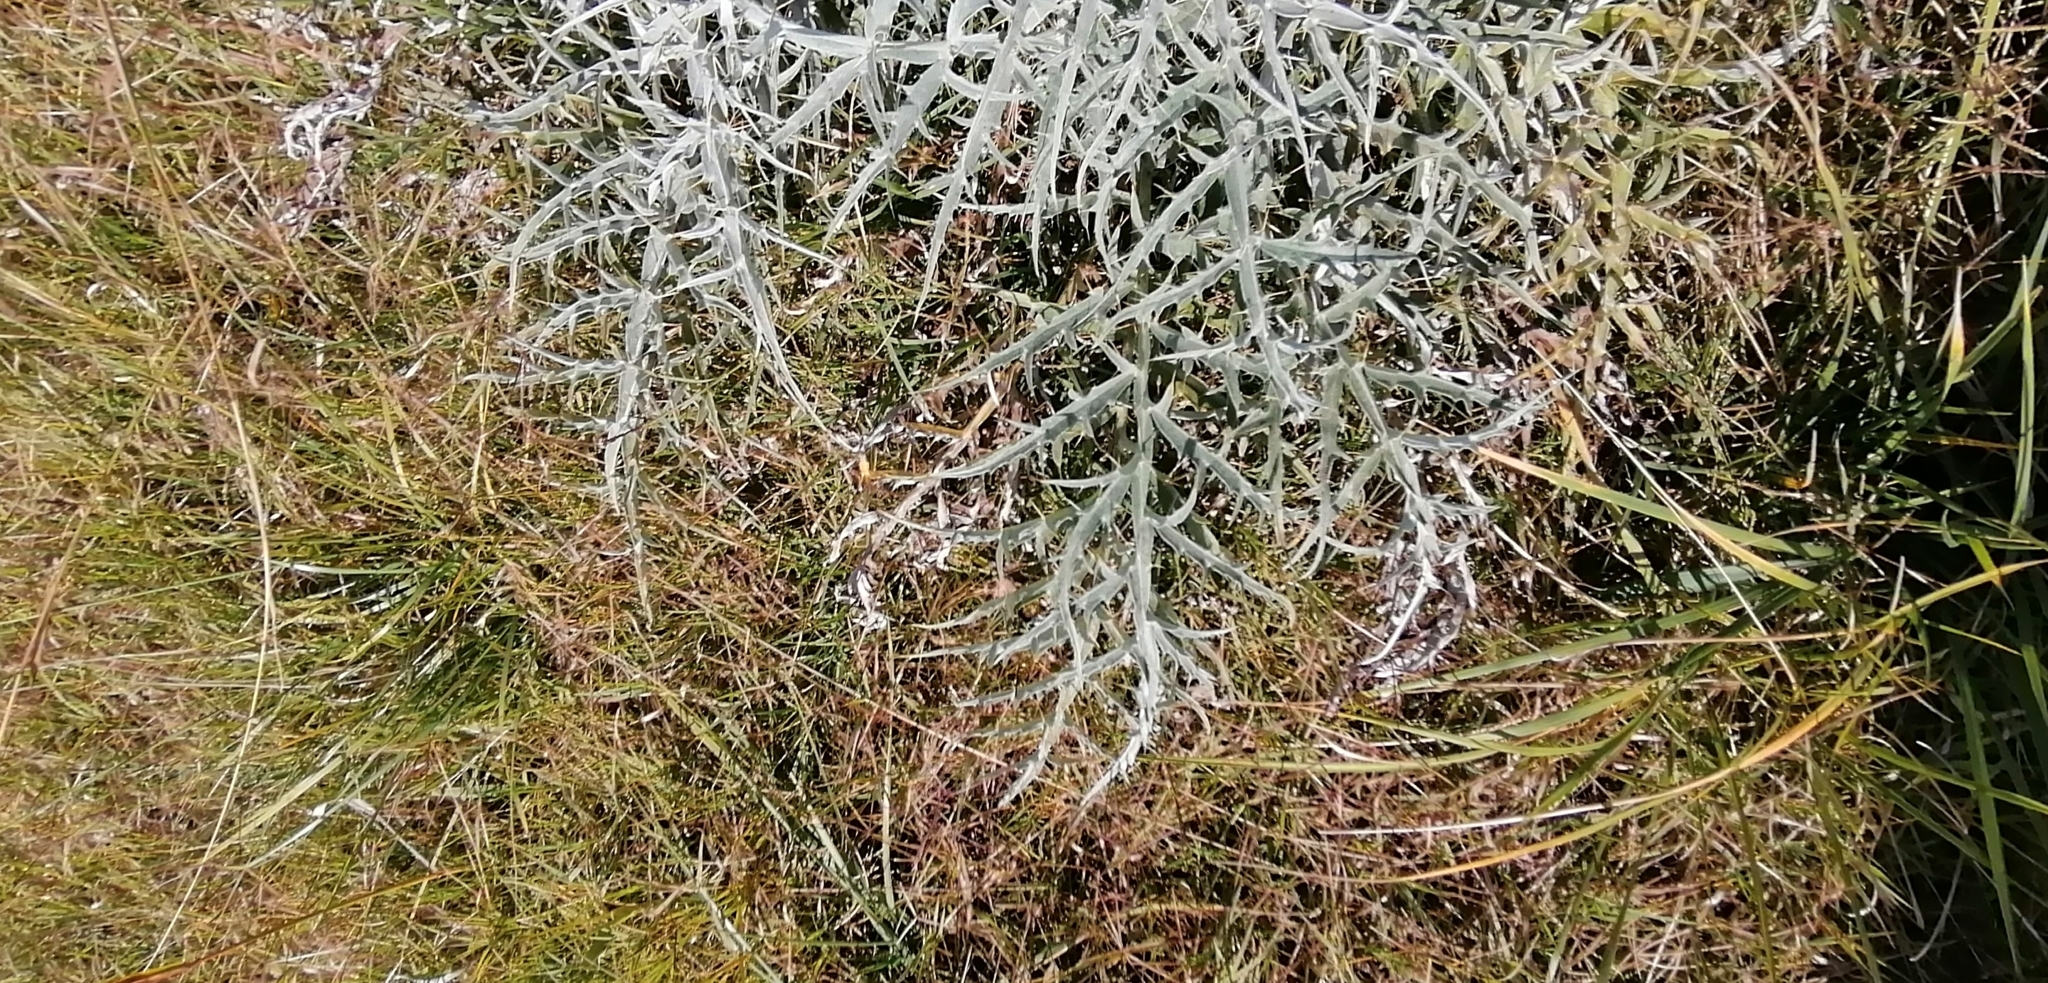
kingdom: Plantae
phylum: Tracheophyta
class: Magnoliopsida
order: Asterales
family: Asteraceae
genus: Cynara
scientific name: Cynara cardunculus
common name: Globe artichoke
